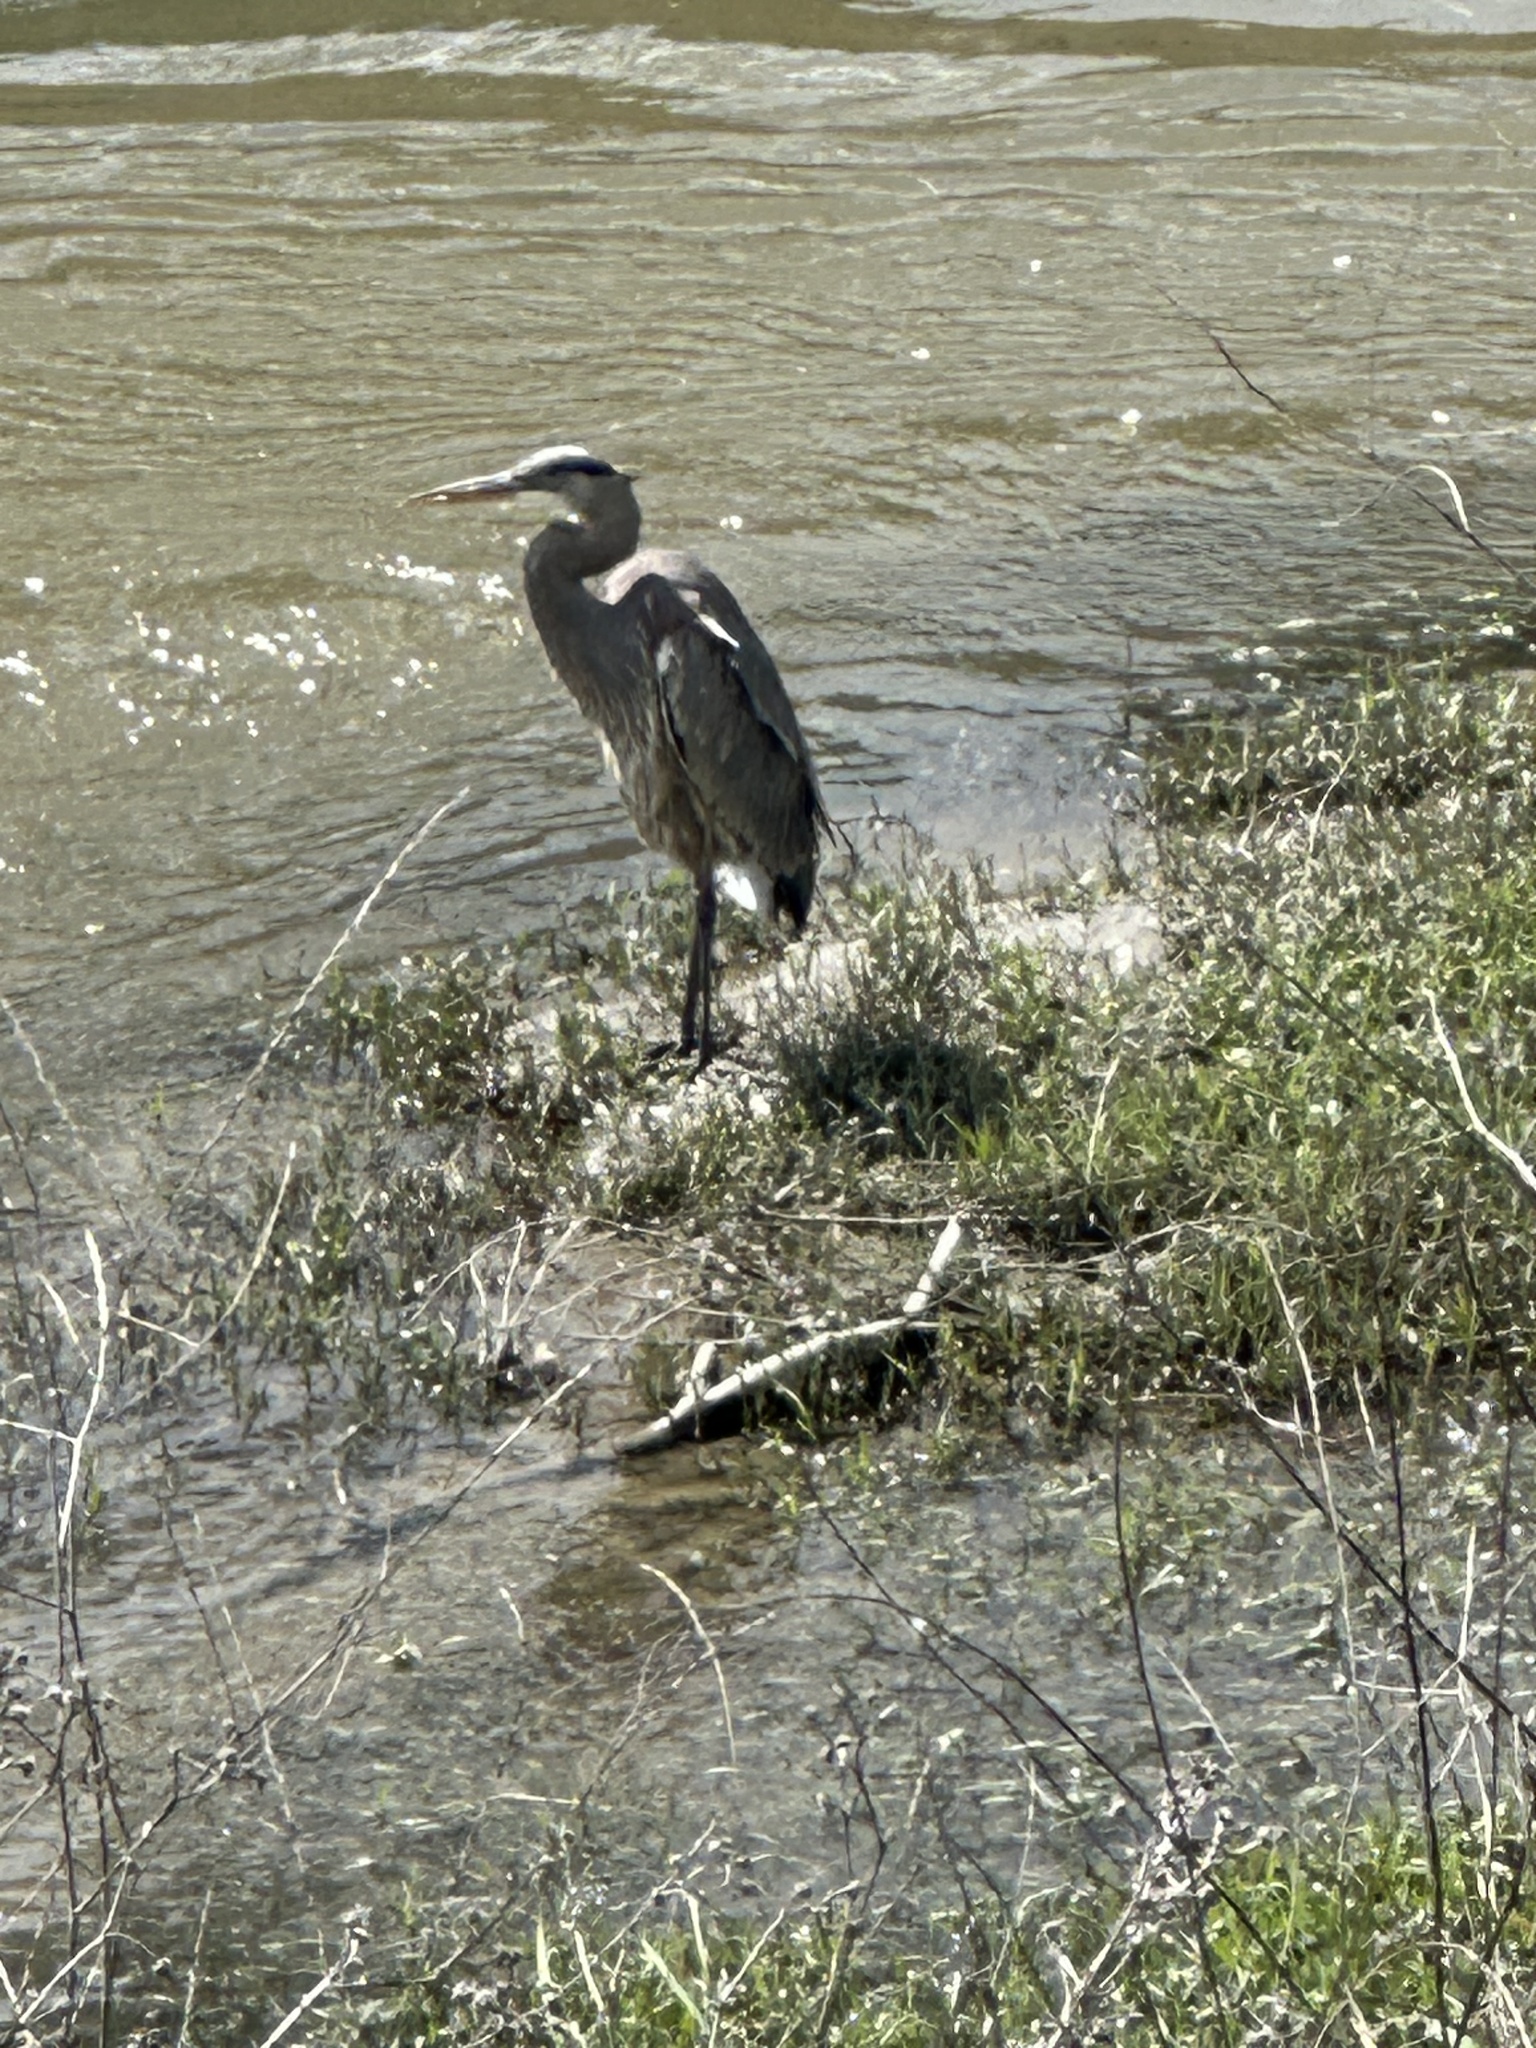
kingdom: Animalia
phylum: Chordata
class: Aves
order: Pelecaniformes
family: Ardeidae
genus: Ardea
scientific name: Ardea herodias
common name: Great blue heron
